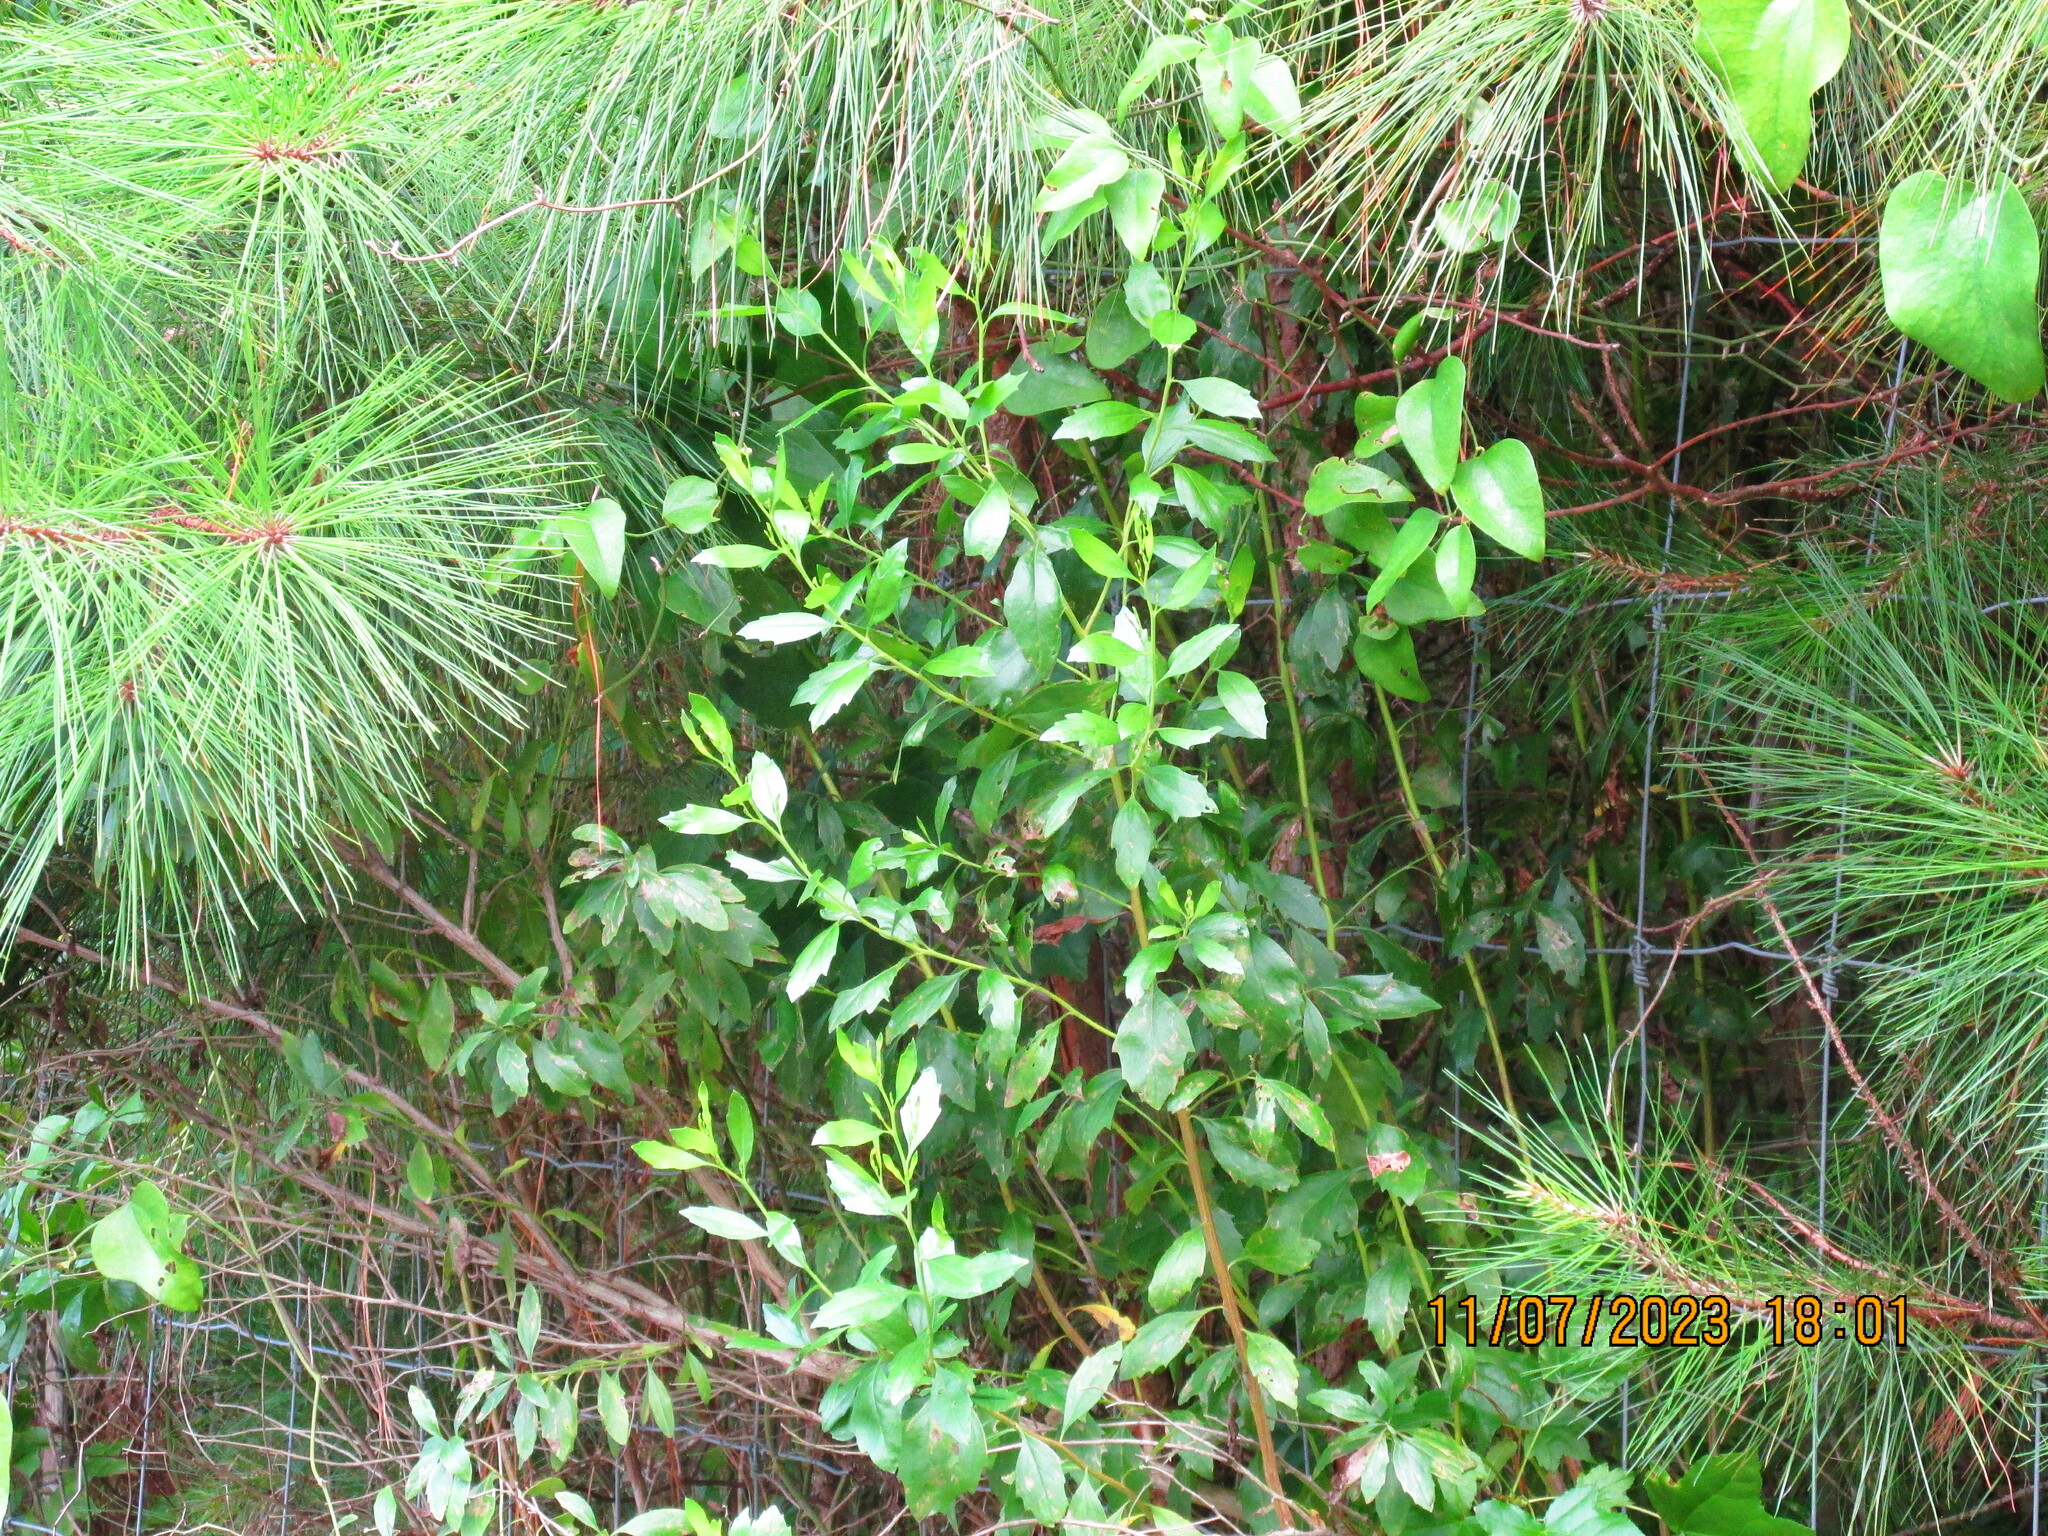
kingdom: Plantae
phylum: Tracheophyta
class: Magnoliopsida
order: Asterales
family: Asteraceae
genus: Baccharis
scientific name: Baccharis halimifolia
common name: Eastern baccharis
